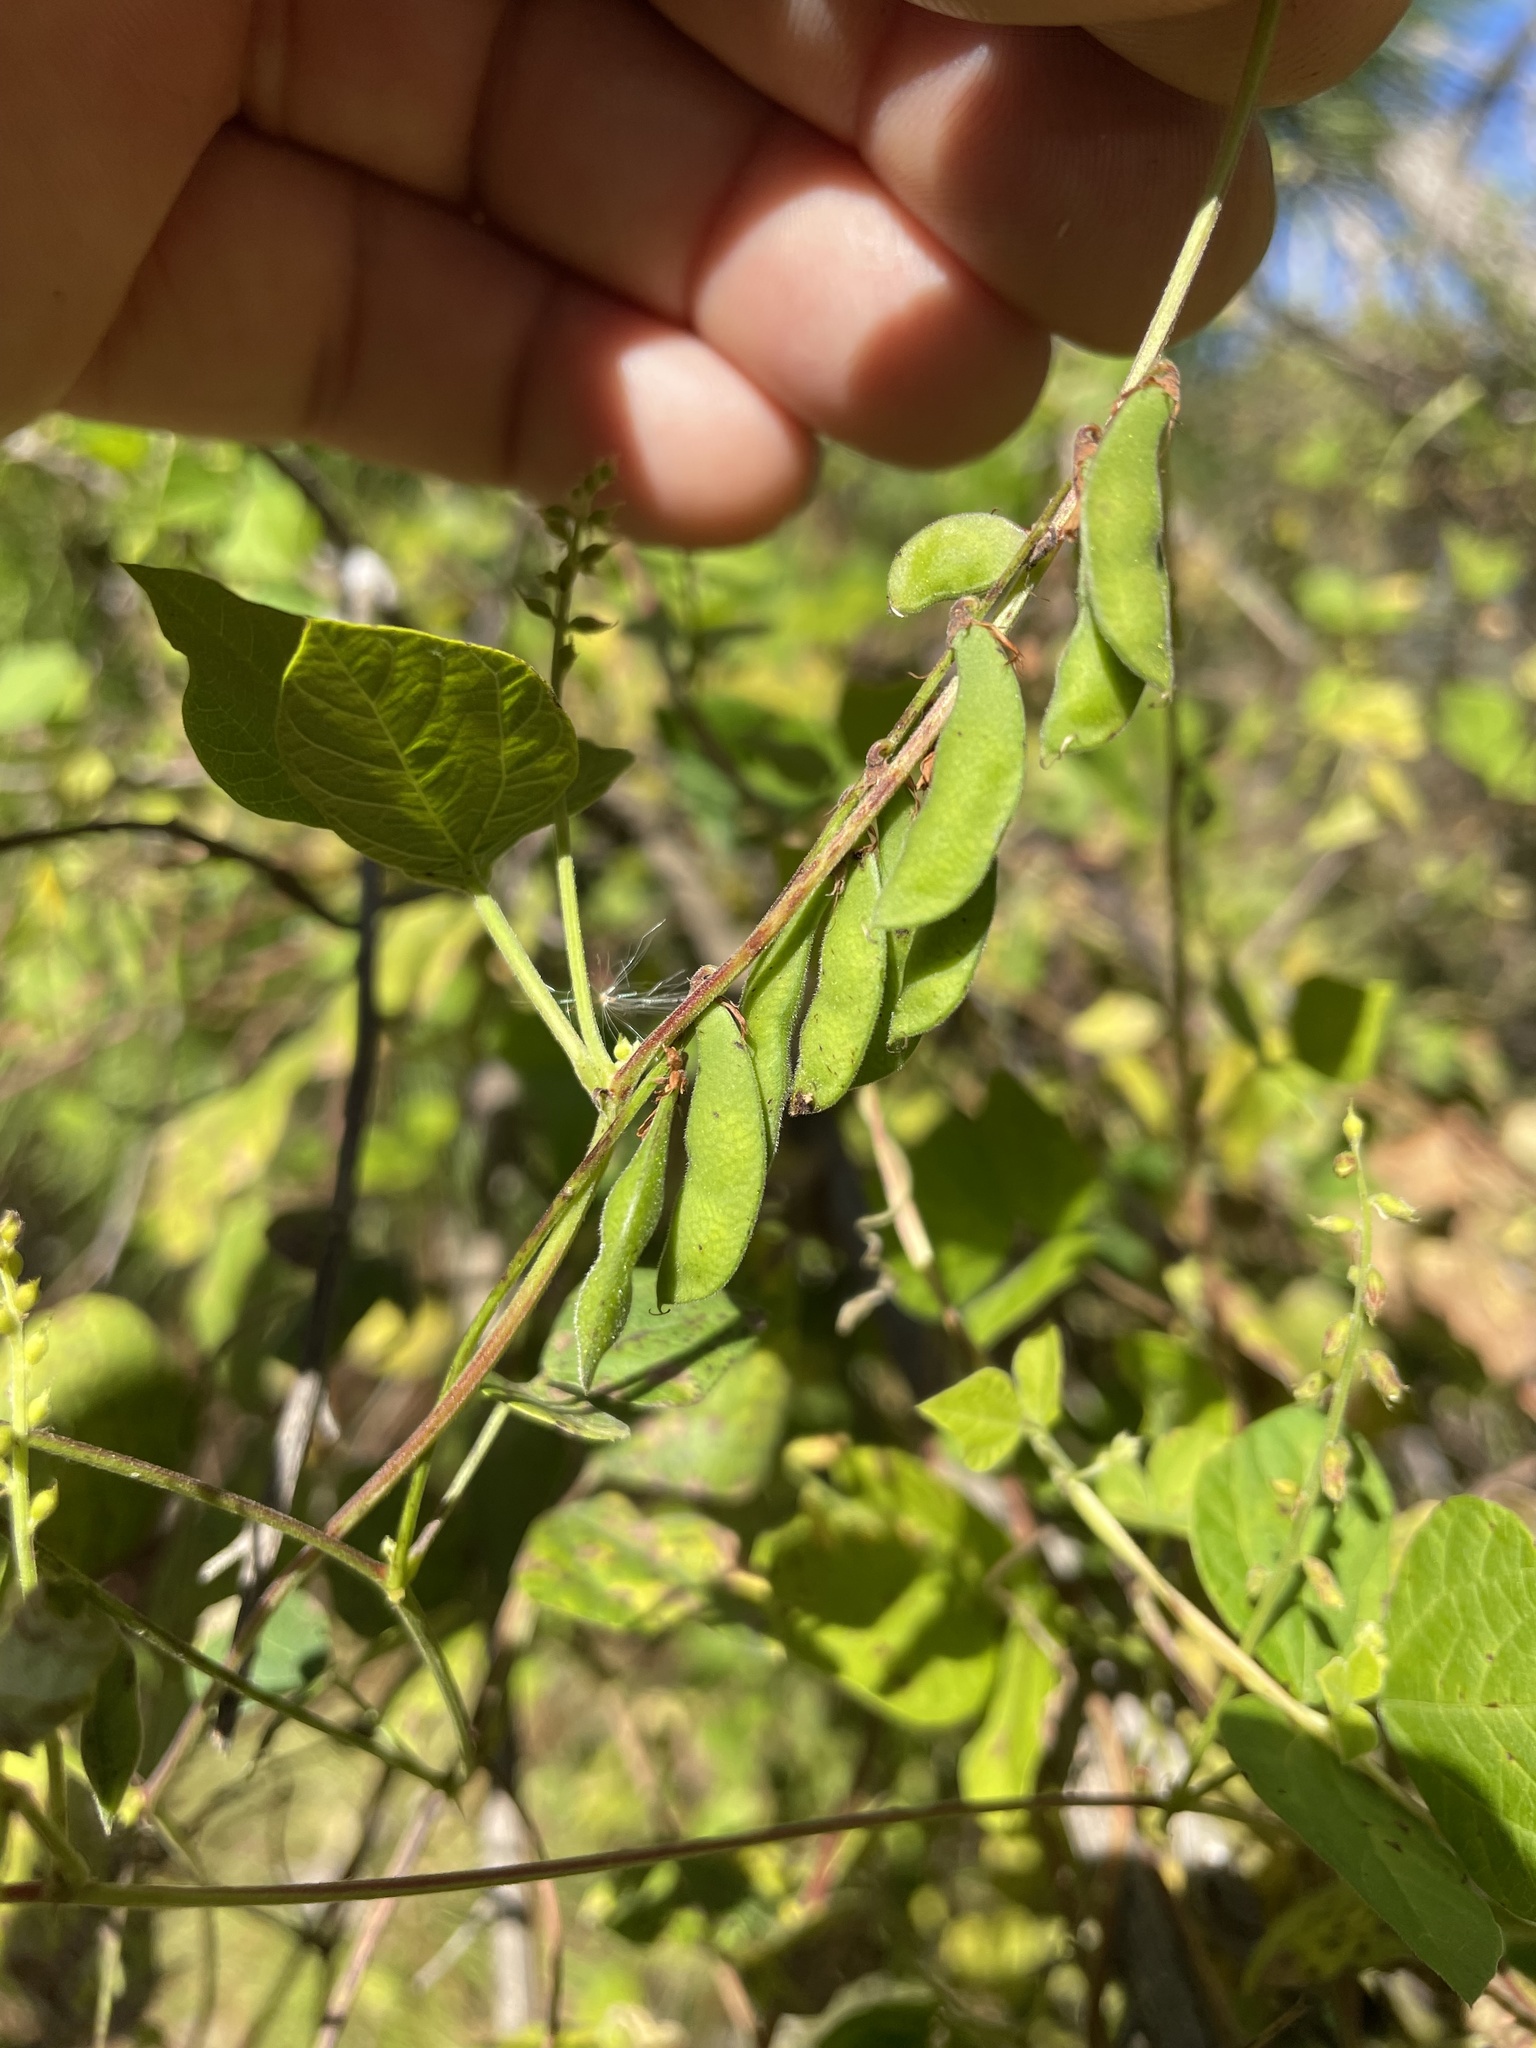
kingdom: Plantae
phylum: Tracheophyta
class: Magnoliopsida
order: Fabales
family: Fabaceae
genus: Rhynchosia
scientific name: Rhynchosia minima
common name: Least snoutbean
